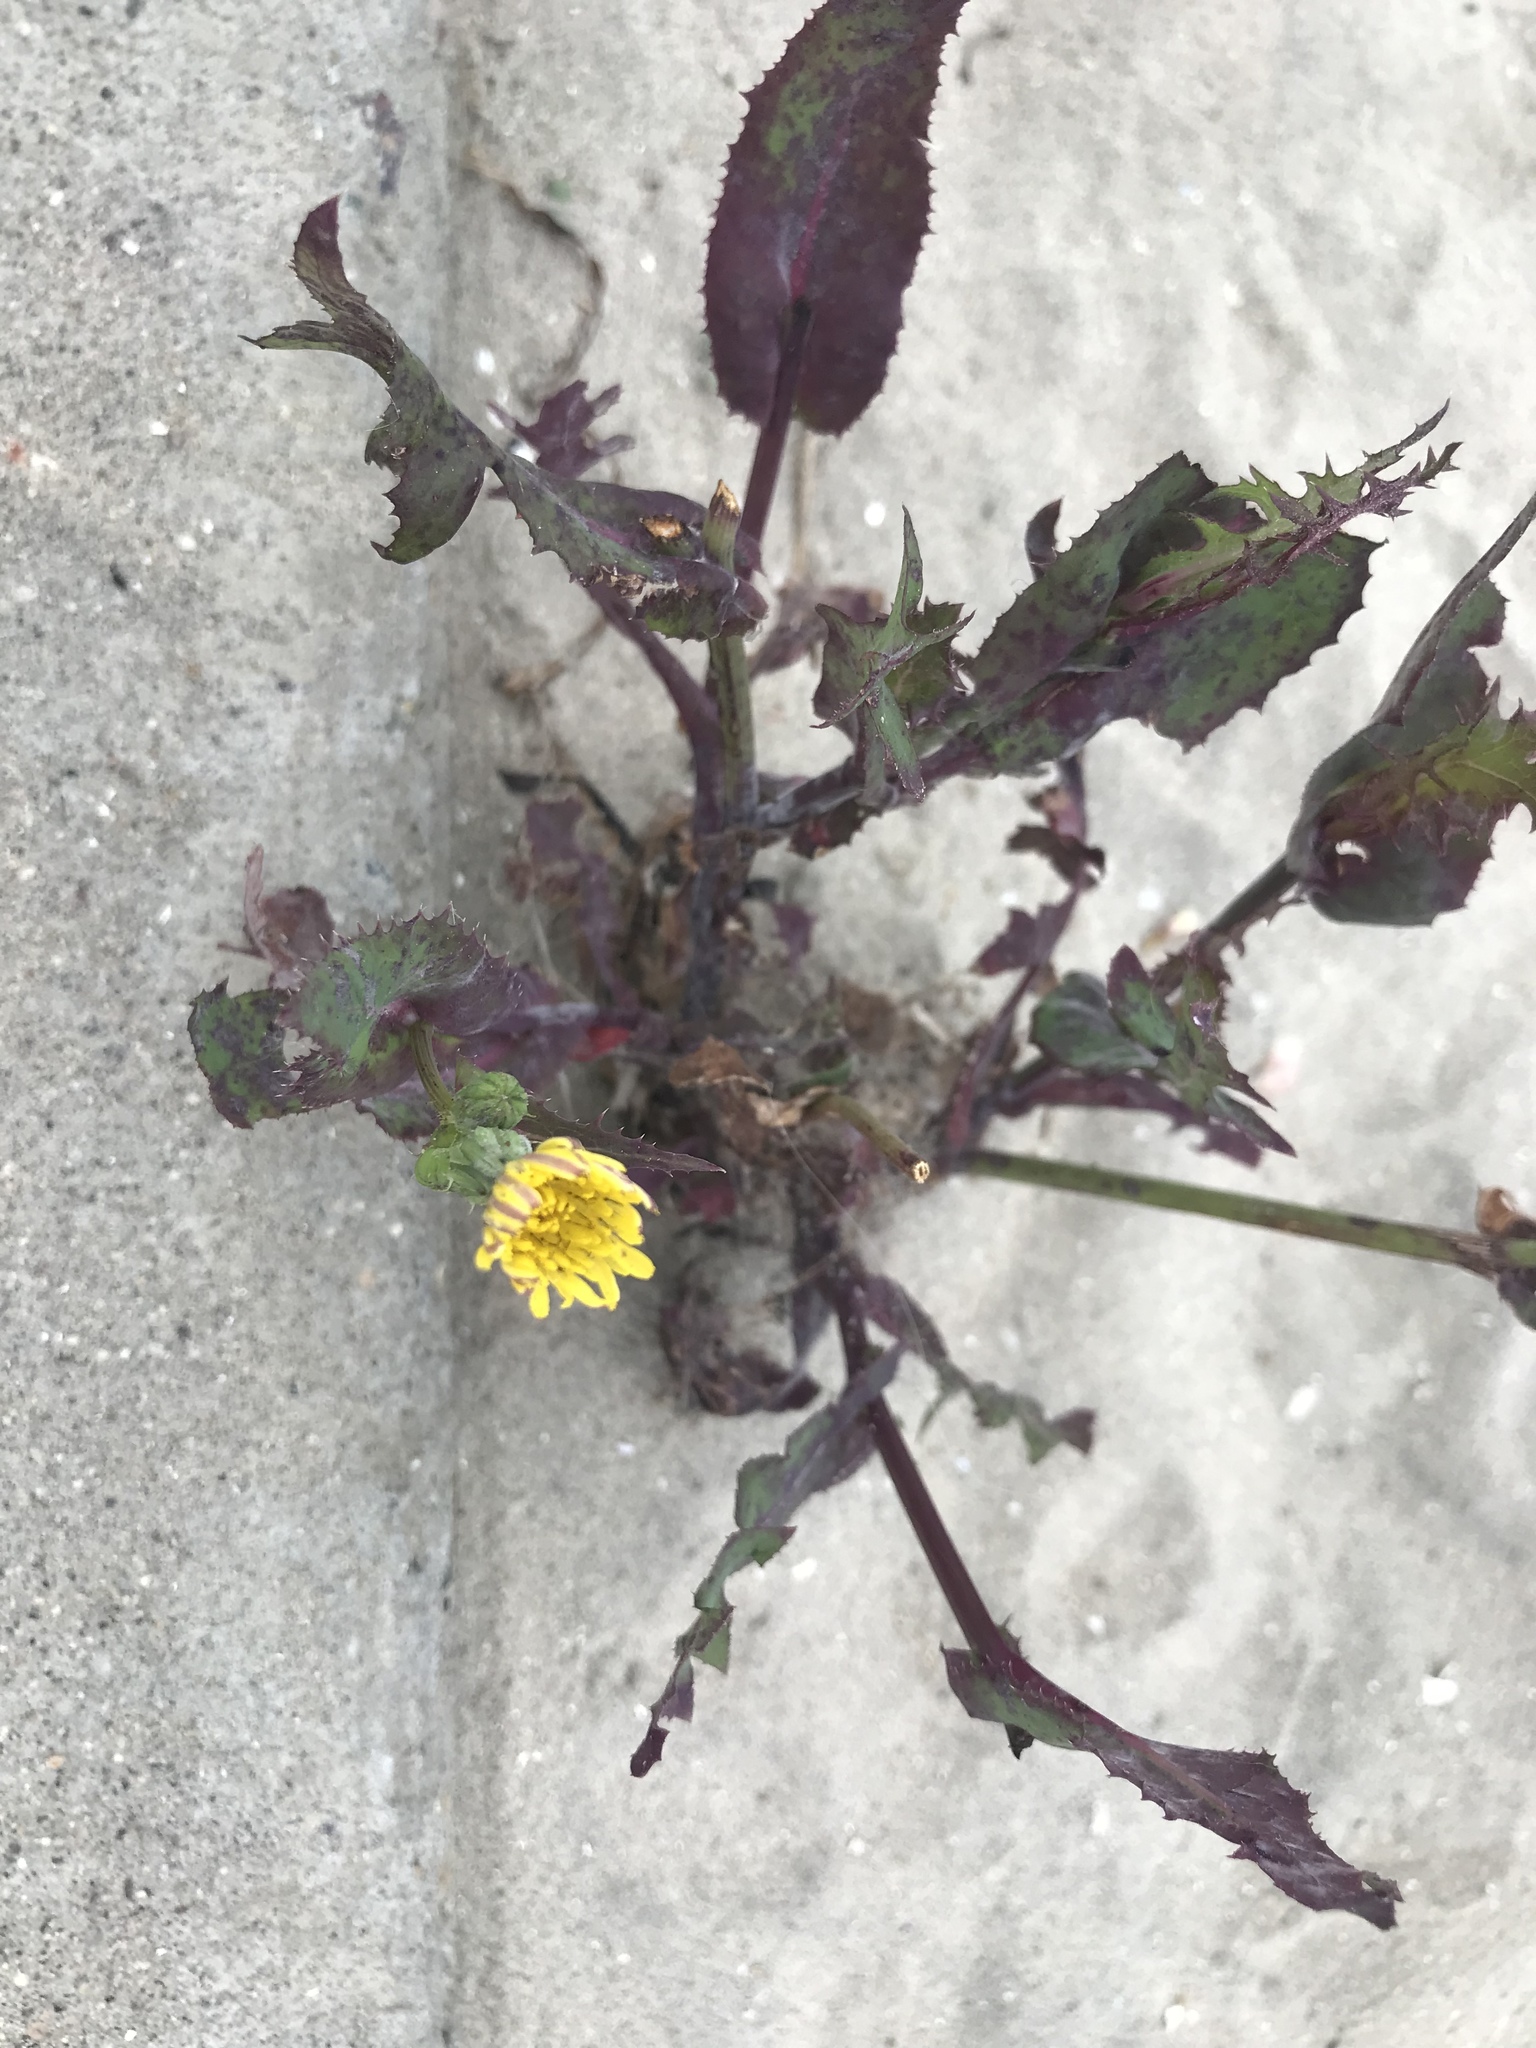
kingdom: Plantae
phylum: Tracheophyta
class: Magnoliopsida
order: Asterales
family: Asteraceae
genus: Sonchus
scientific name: Sonchus oleraceus
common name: Common sowthistle
